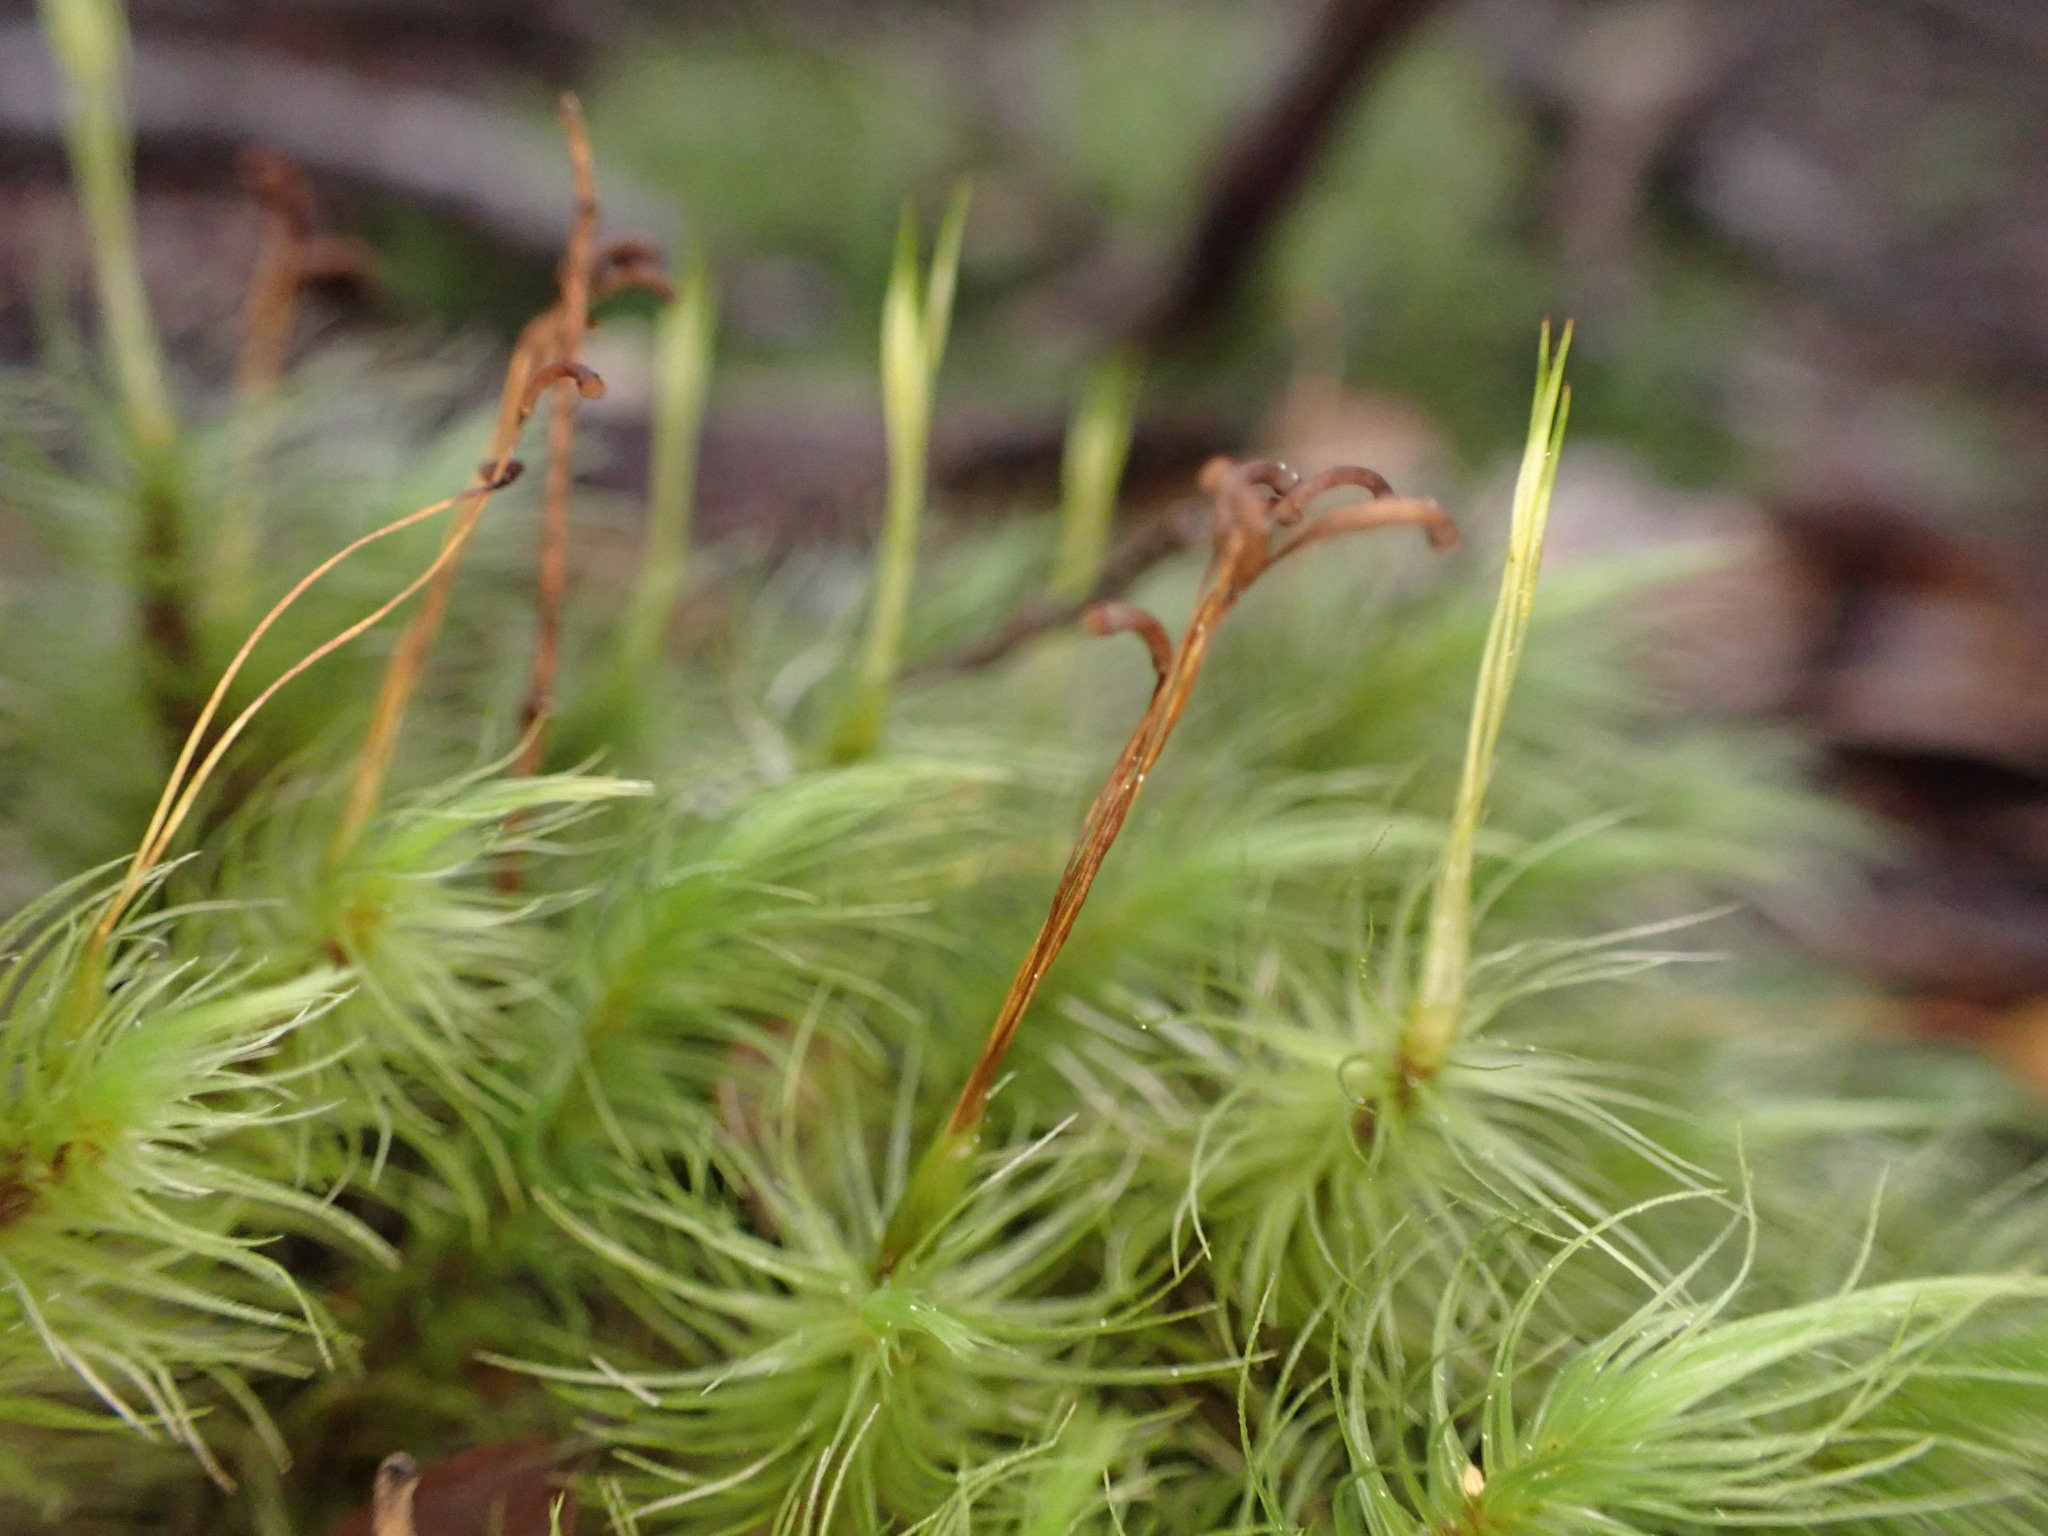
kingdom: Plantae
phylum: Bryophyta
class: Bryopsida
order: Dicranales
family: Dicranaceae
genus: Dicranoloma
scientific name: Dicranoloma dicarpon
